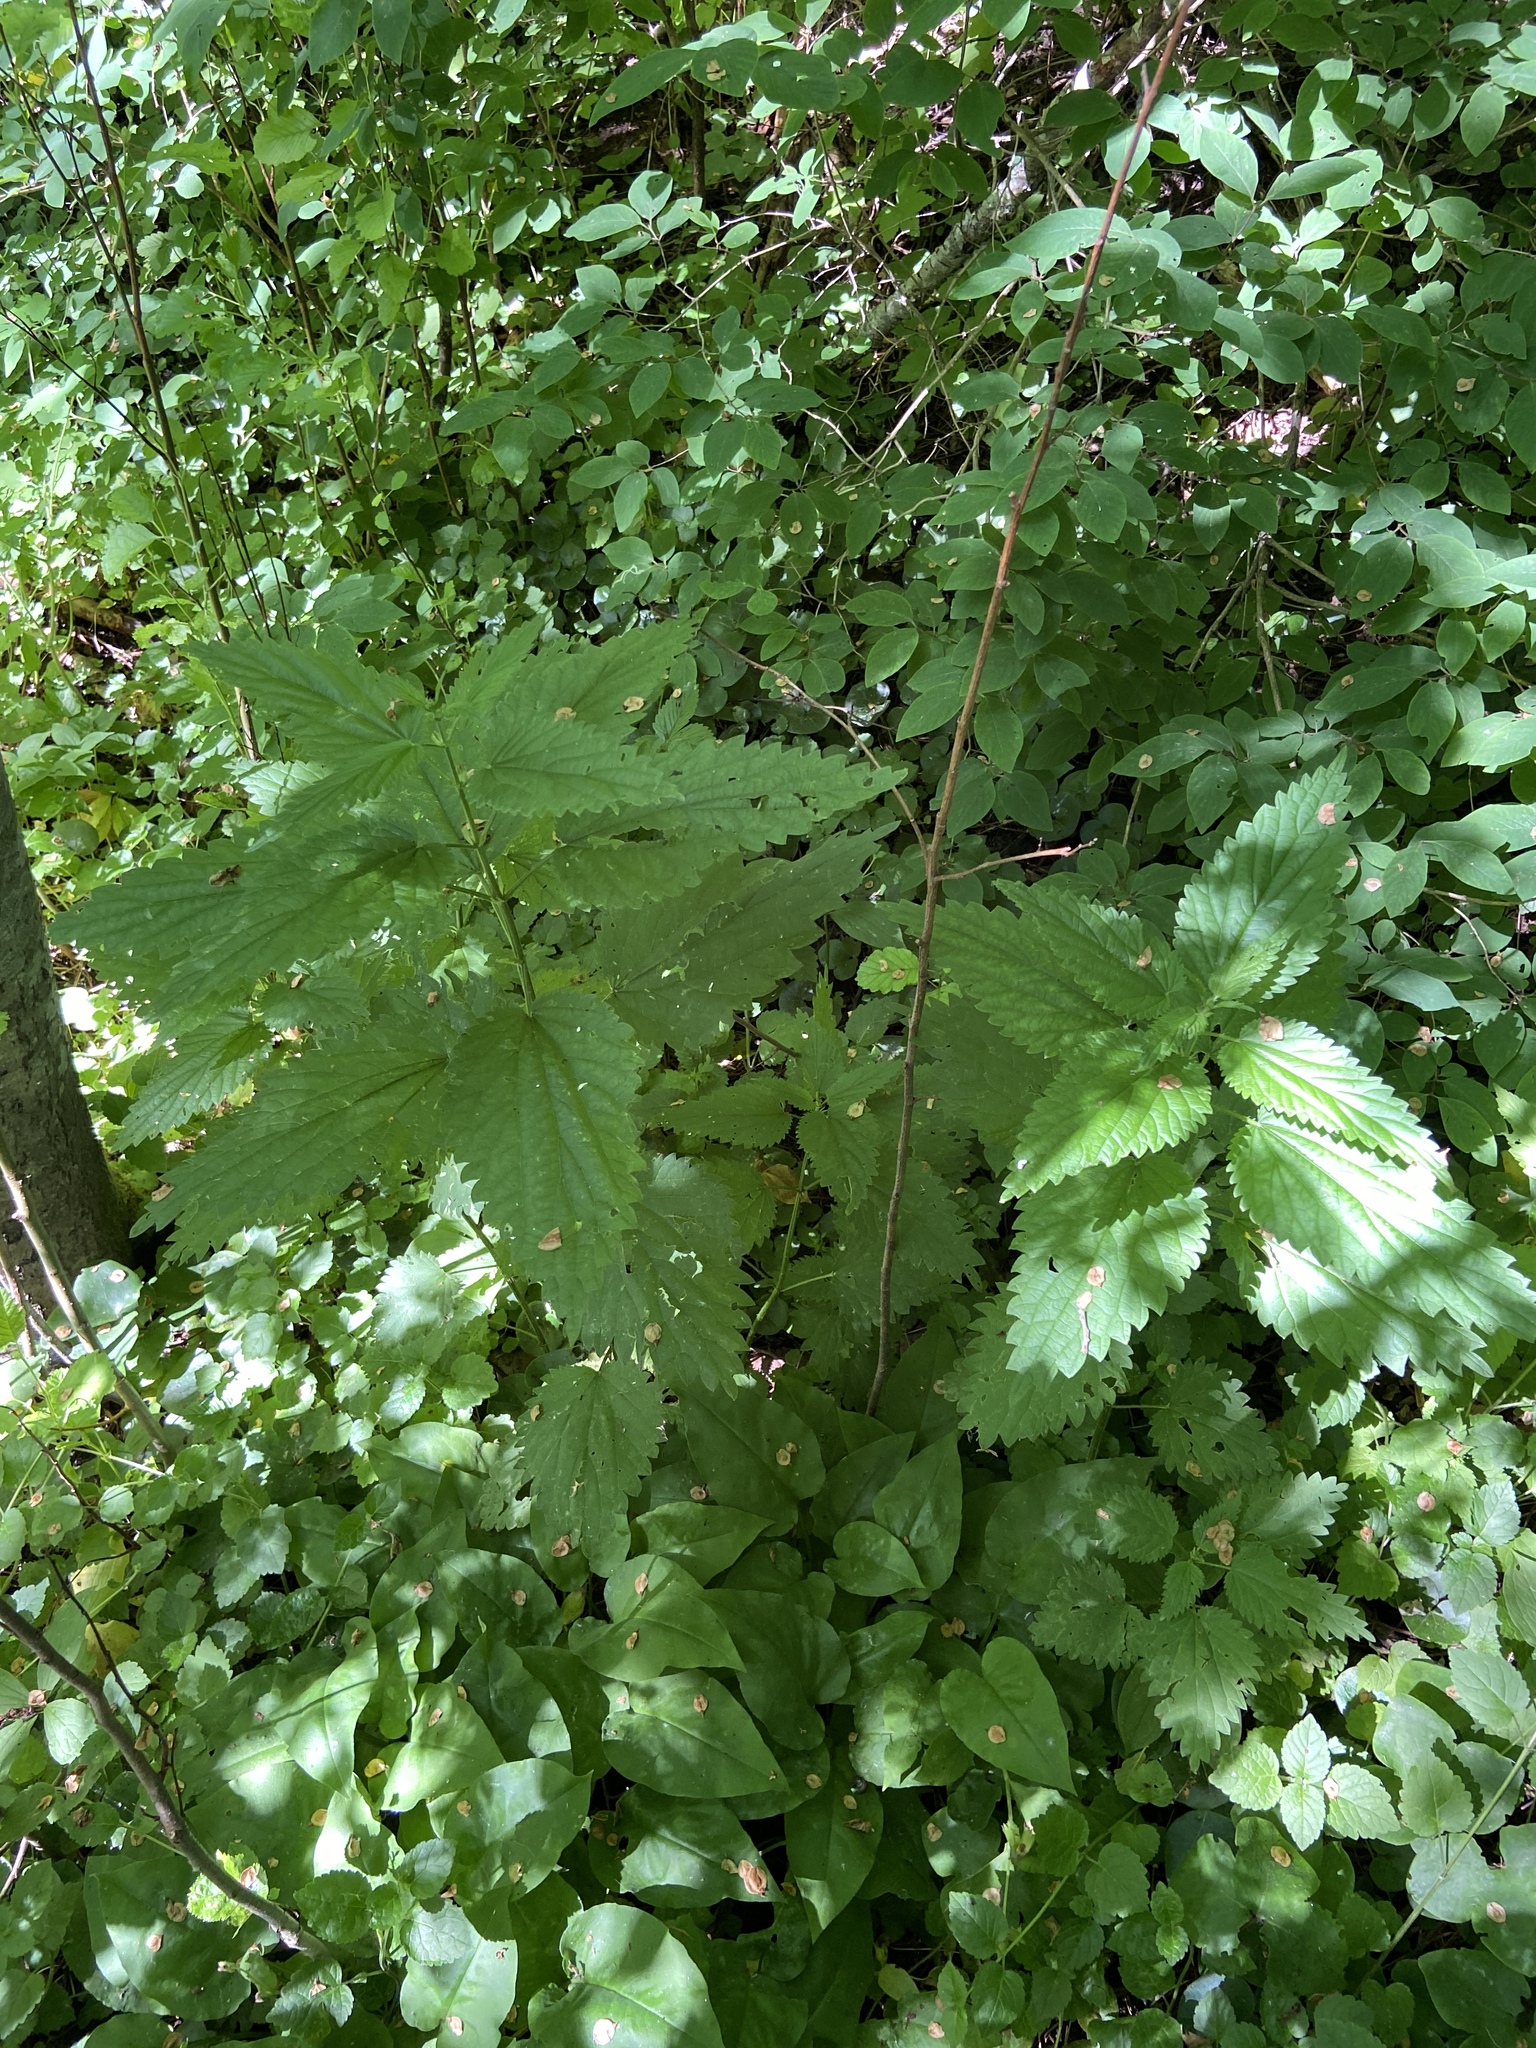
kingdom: Plantae
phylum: Tracheophyta
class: Magnoliopsida
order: Rosales
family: Urticaceae
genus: Urtica
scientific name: Urtica dioica
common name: Common nettle
